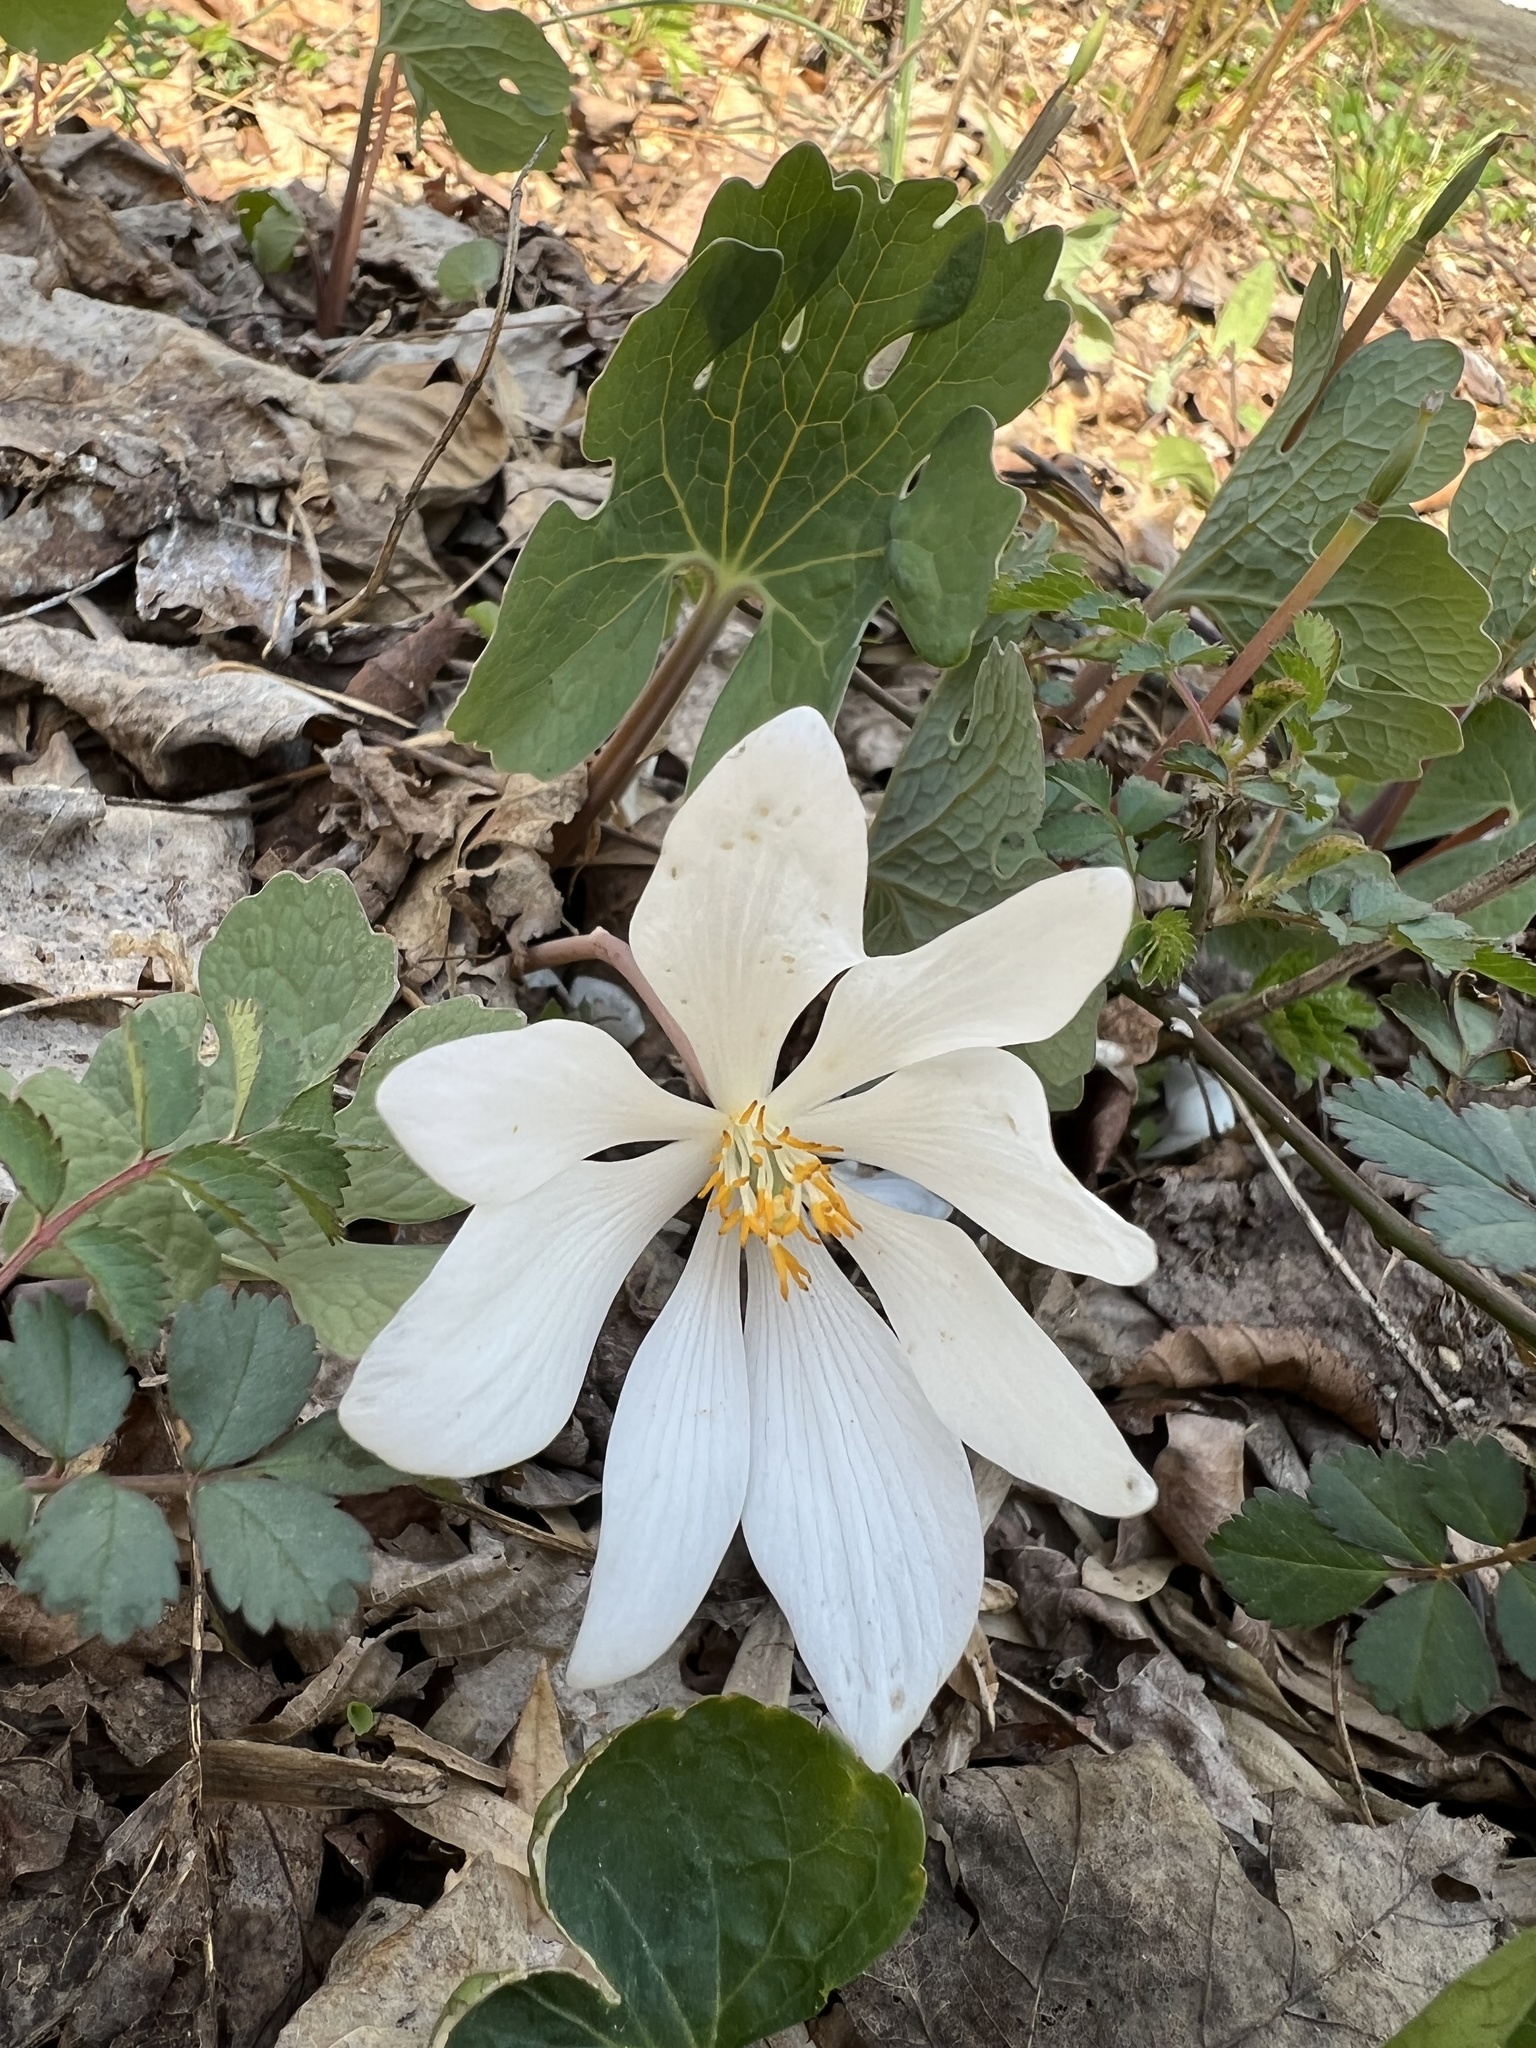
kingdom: Plantae
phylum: Tracheophyta
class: Magnoliopsida
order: Ranunculales
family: Papaveraceae
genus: Sanguinaria
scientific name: Sanguinaria canadensis
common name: Bloodroot
